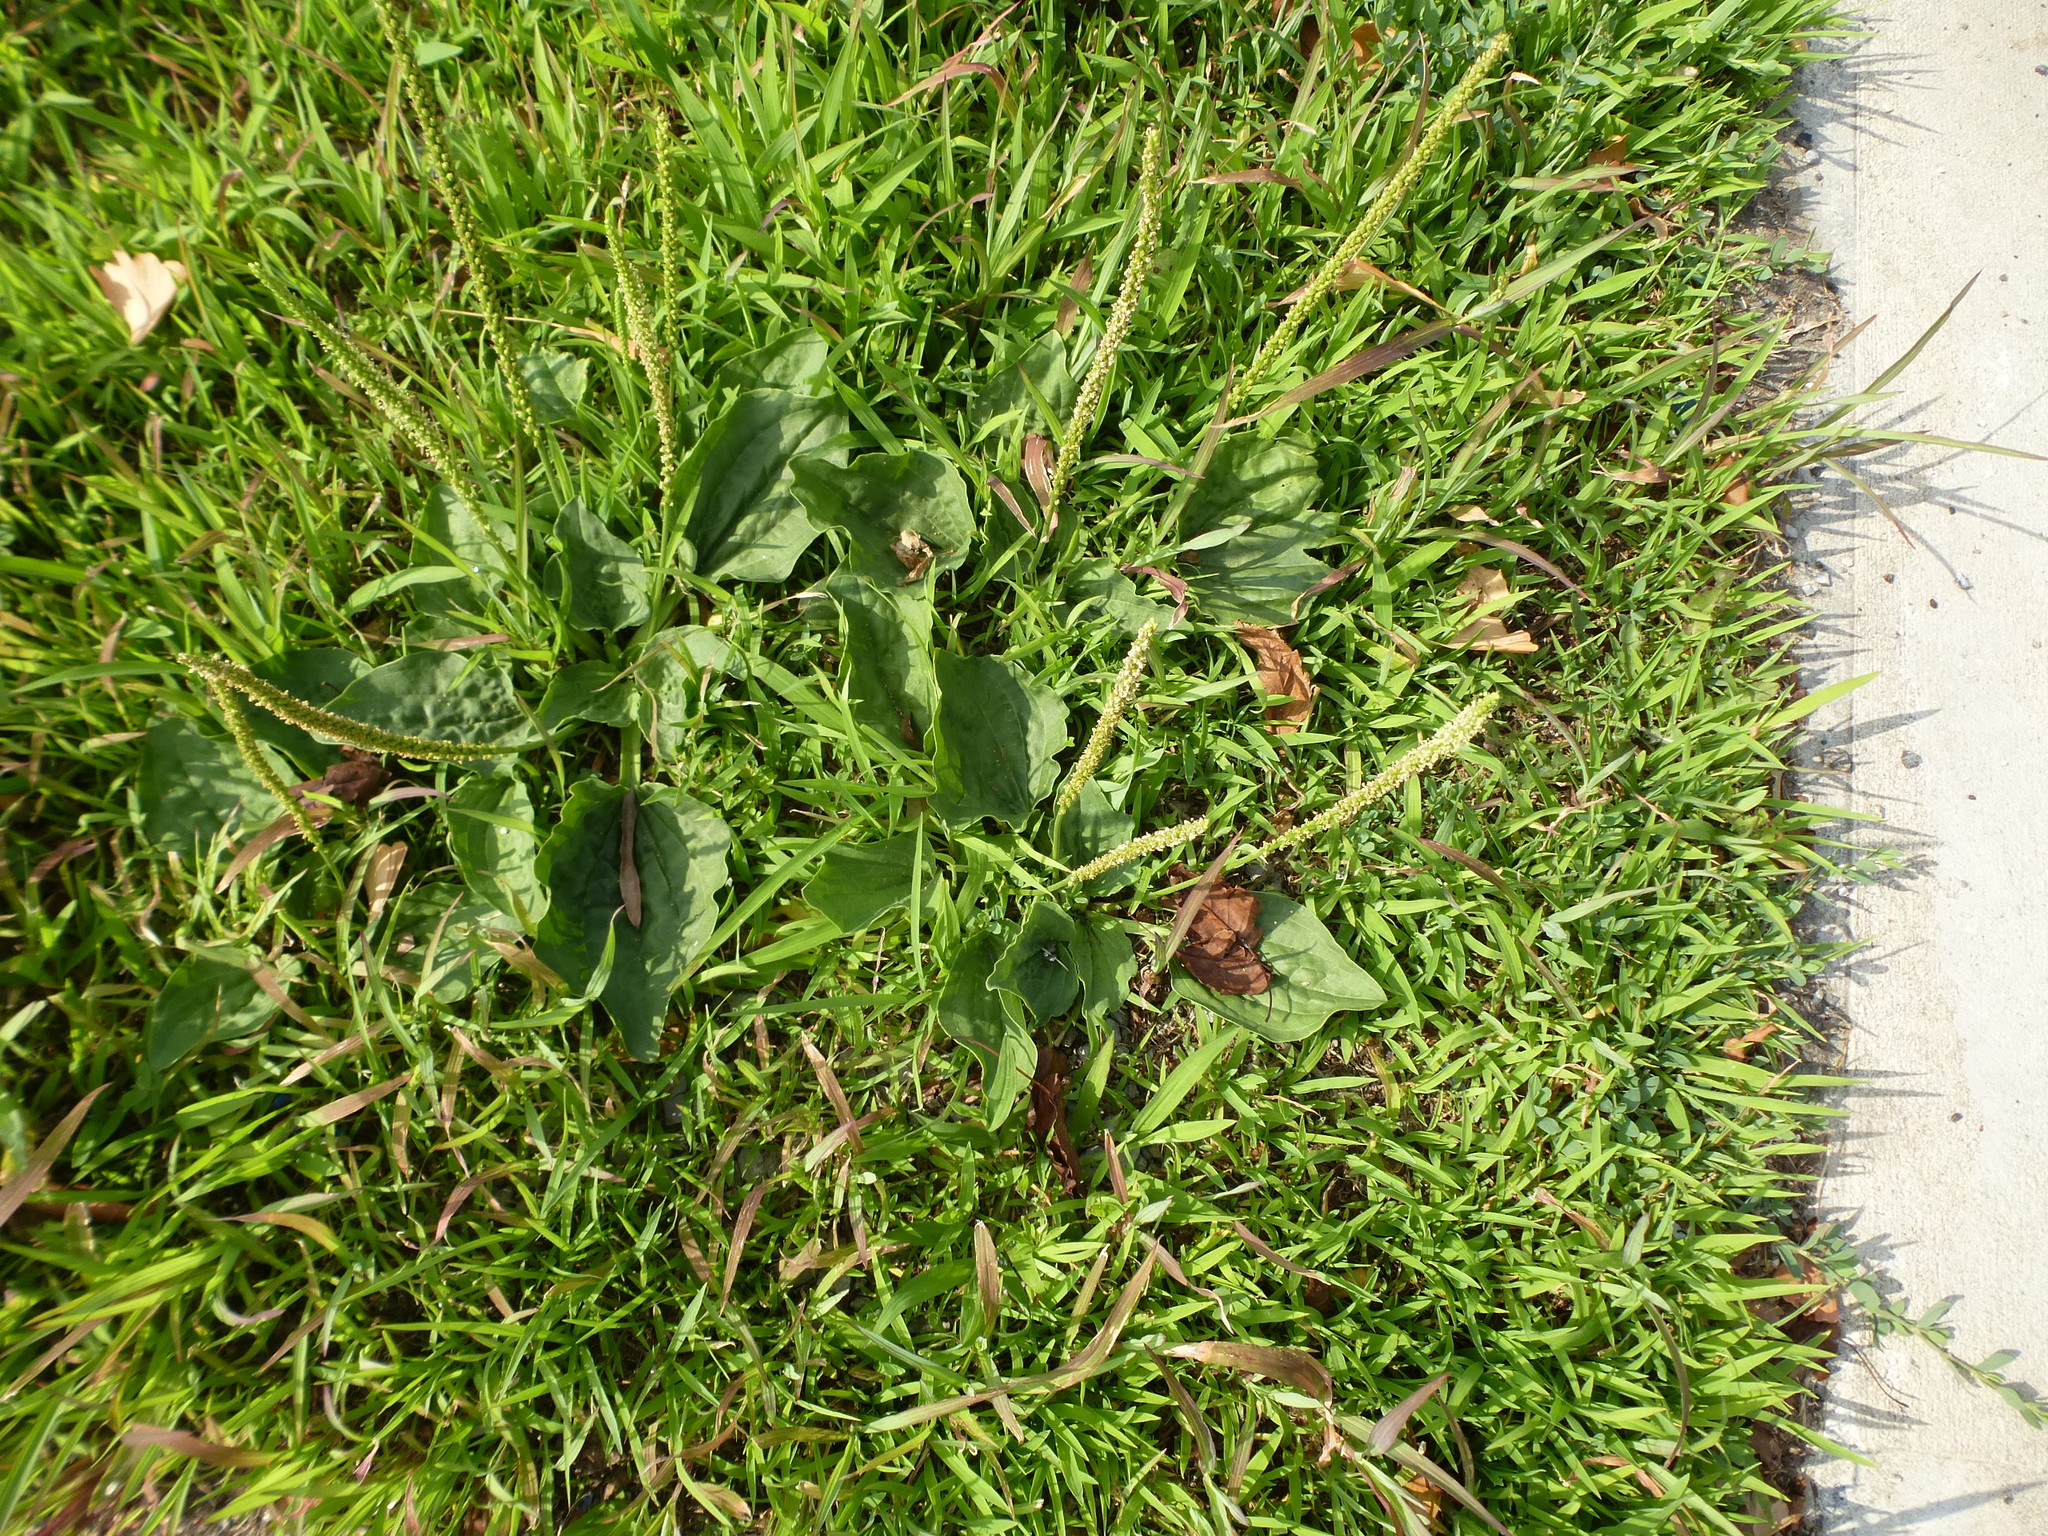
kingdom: Plantae
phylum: Tracheophyta
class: Magnoliopsida
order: Lamiales
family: Plantaginaceae
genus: Plantago
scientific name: Plantago major
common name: Common plantain
